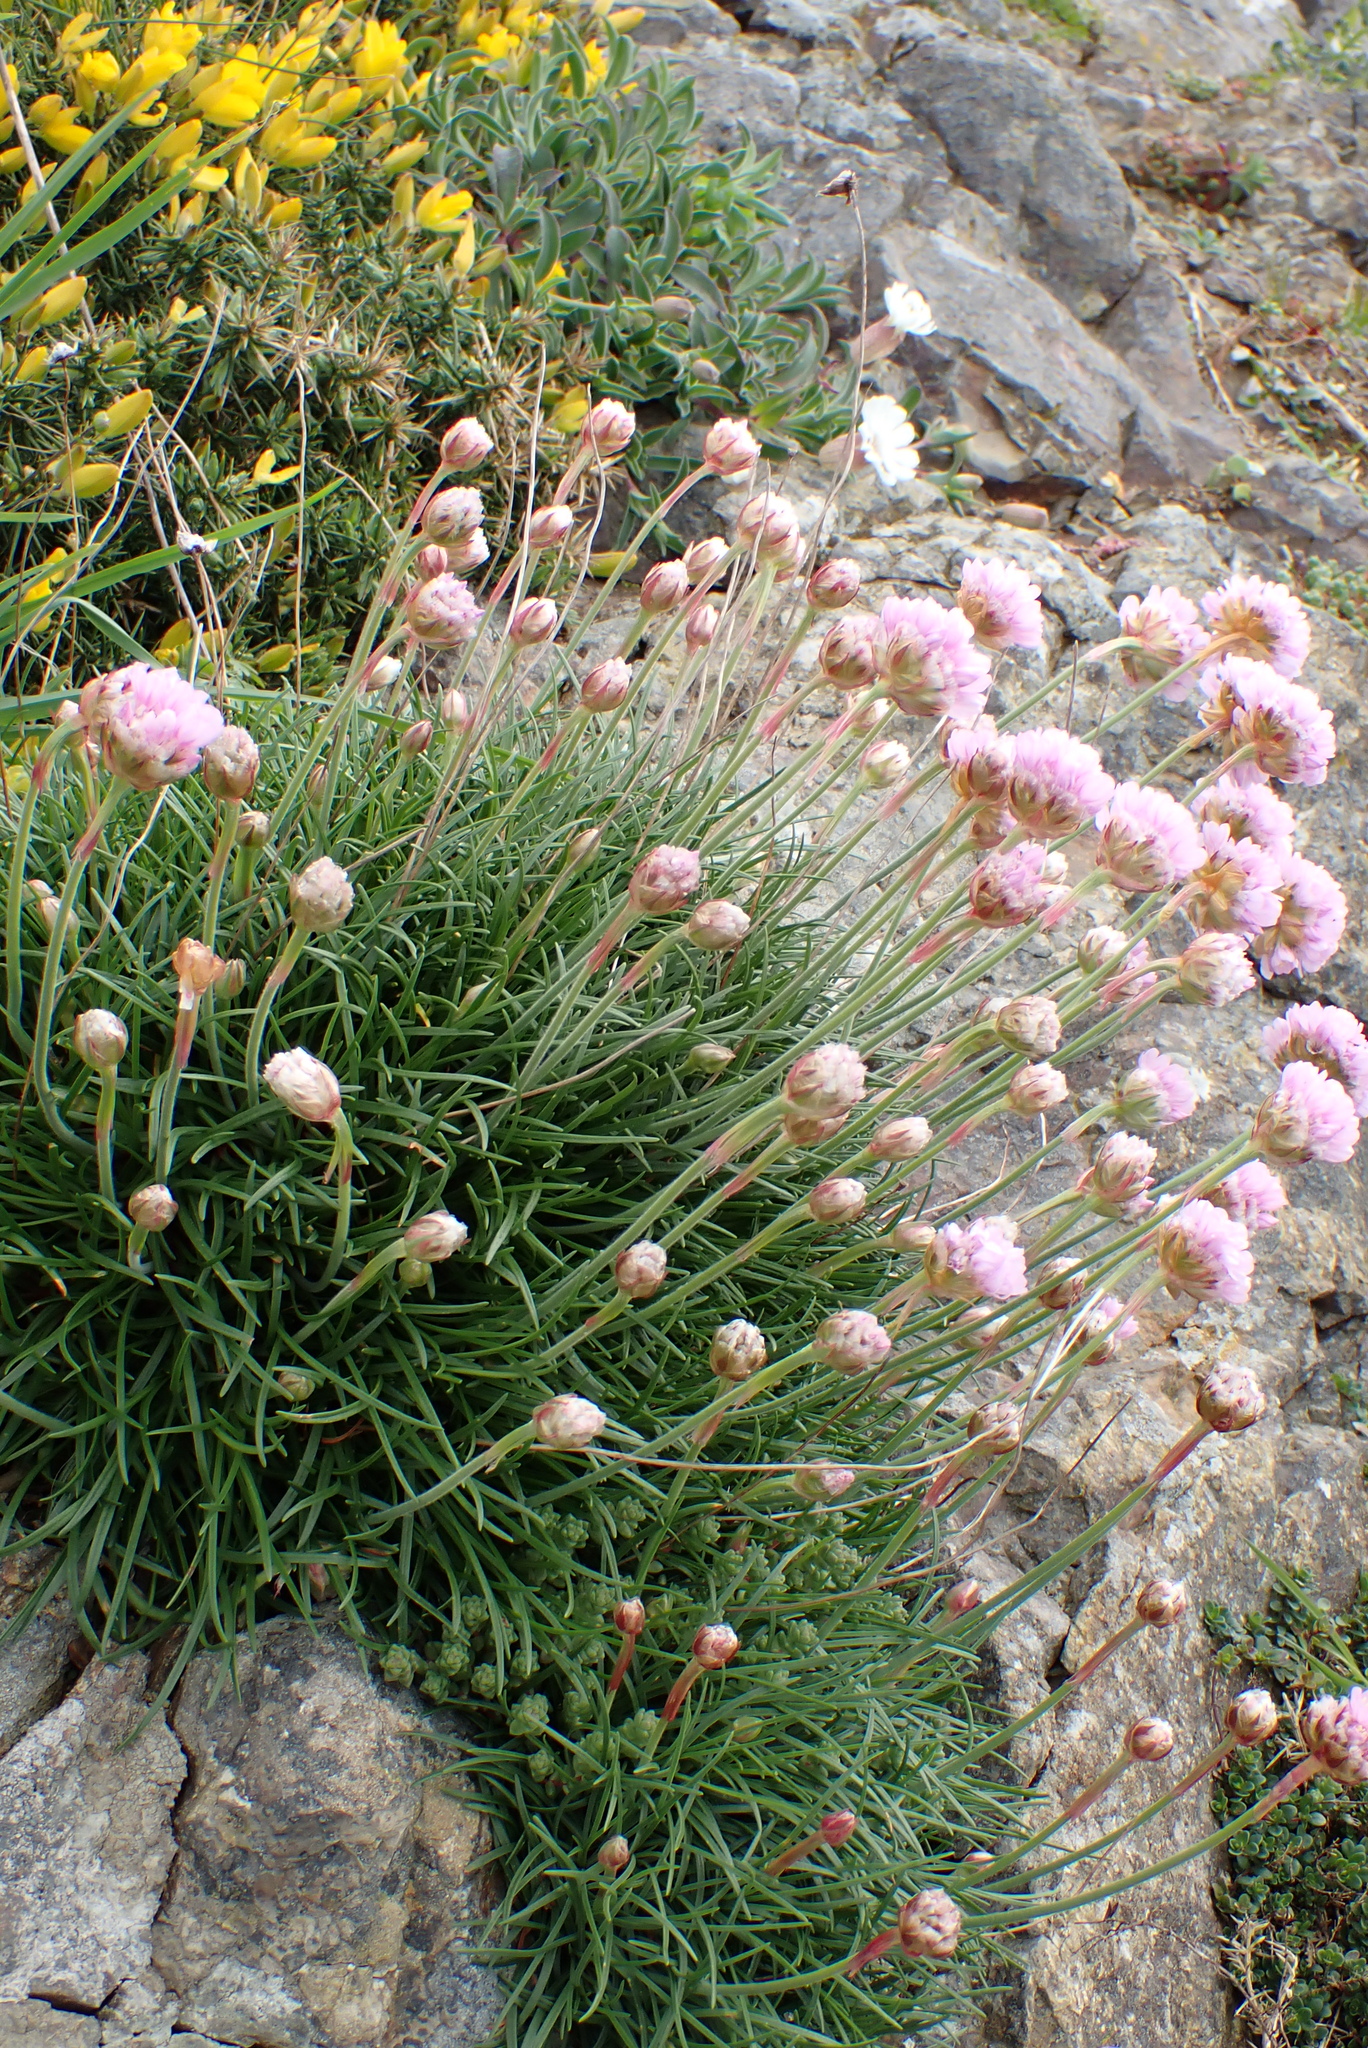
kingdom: Plantae
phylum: Tracheophyta
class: Magnoliopsida
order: Caryophyllales
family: Plumbaginaceae
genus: Armeria
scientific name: Armeria maritima
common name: Thrift
